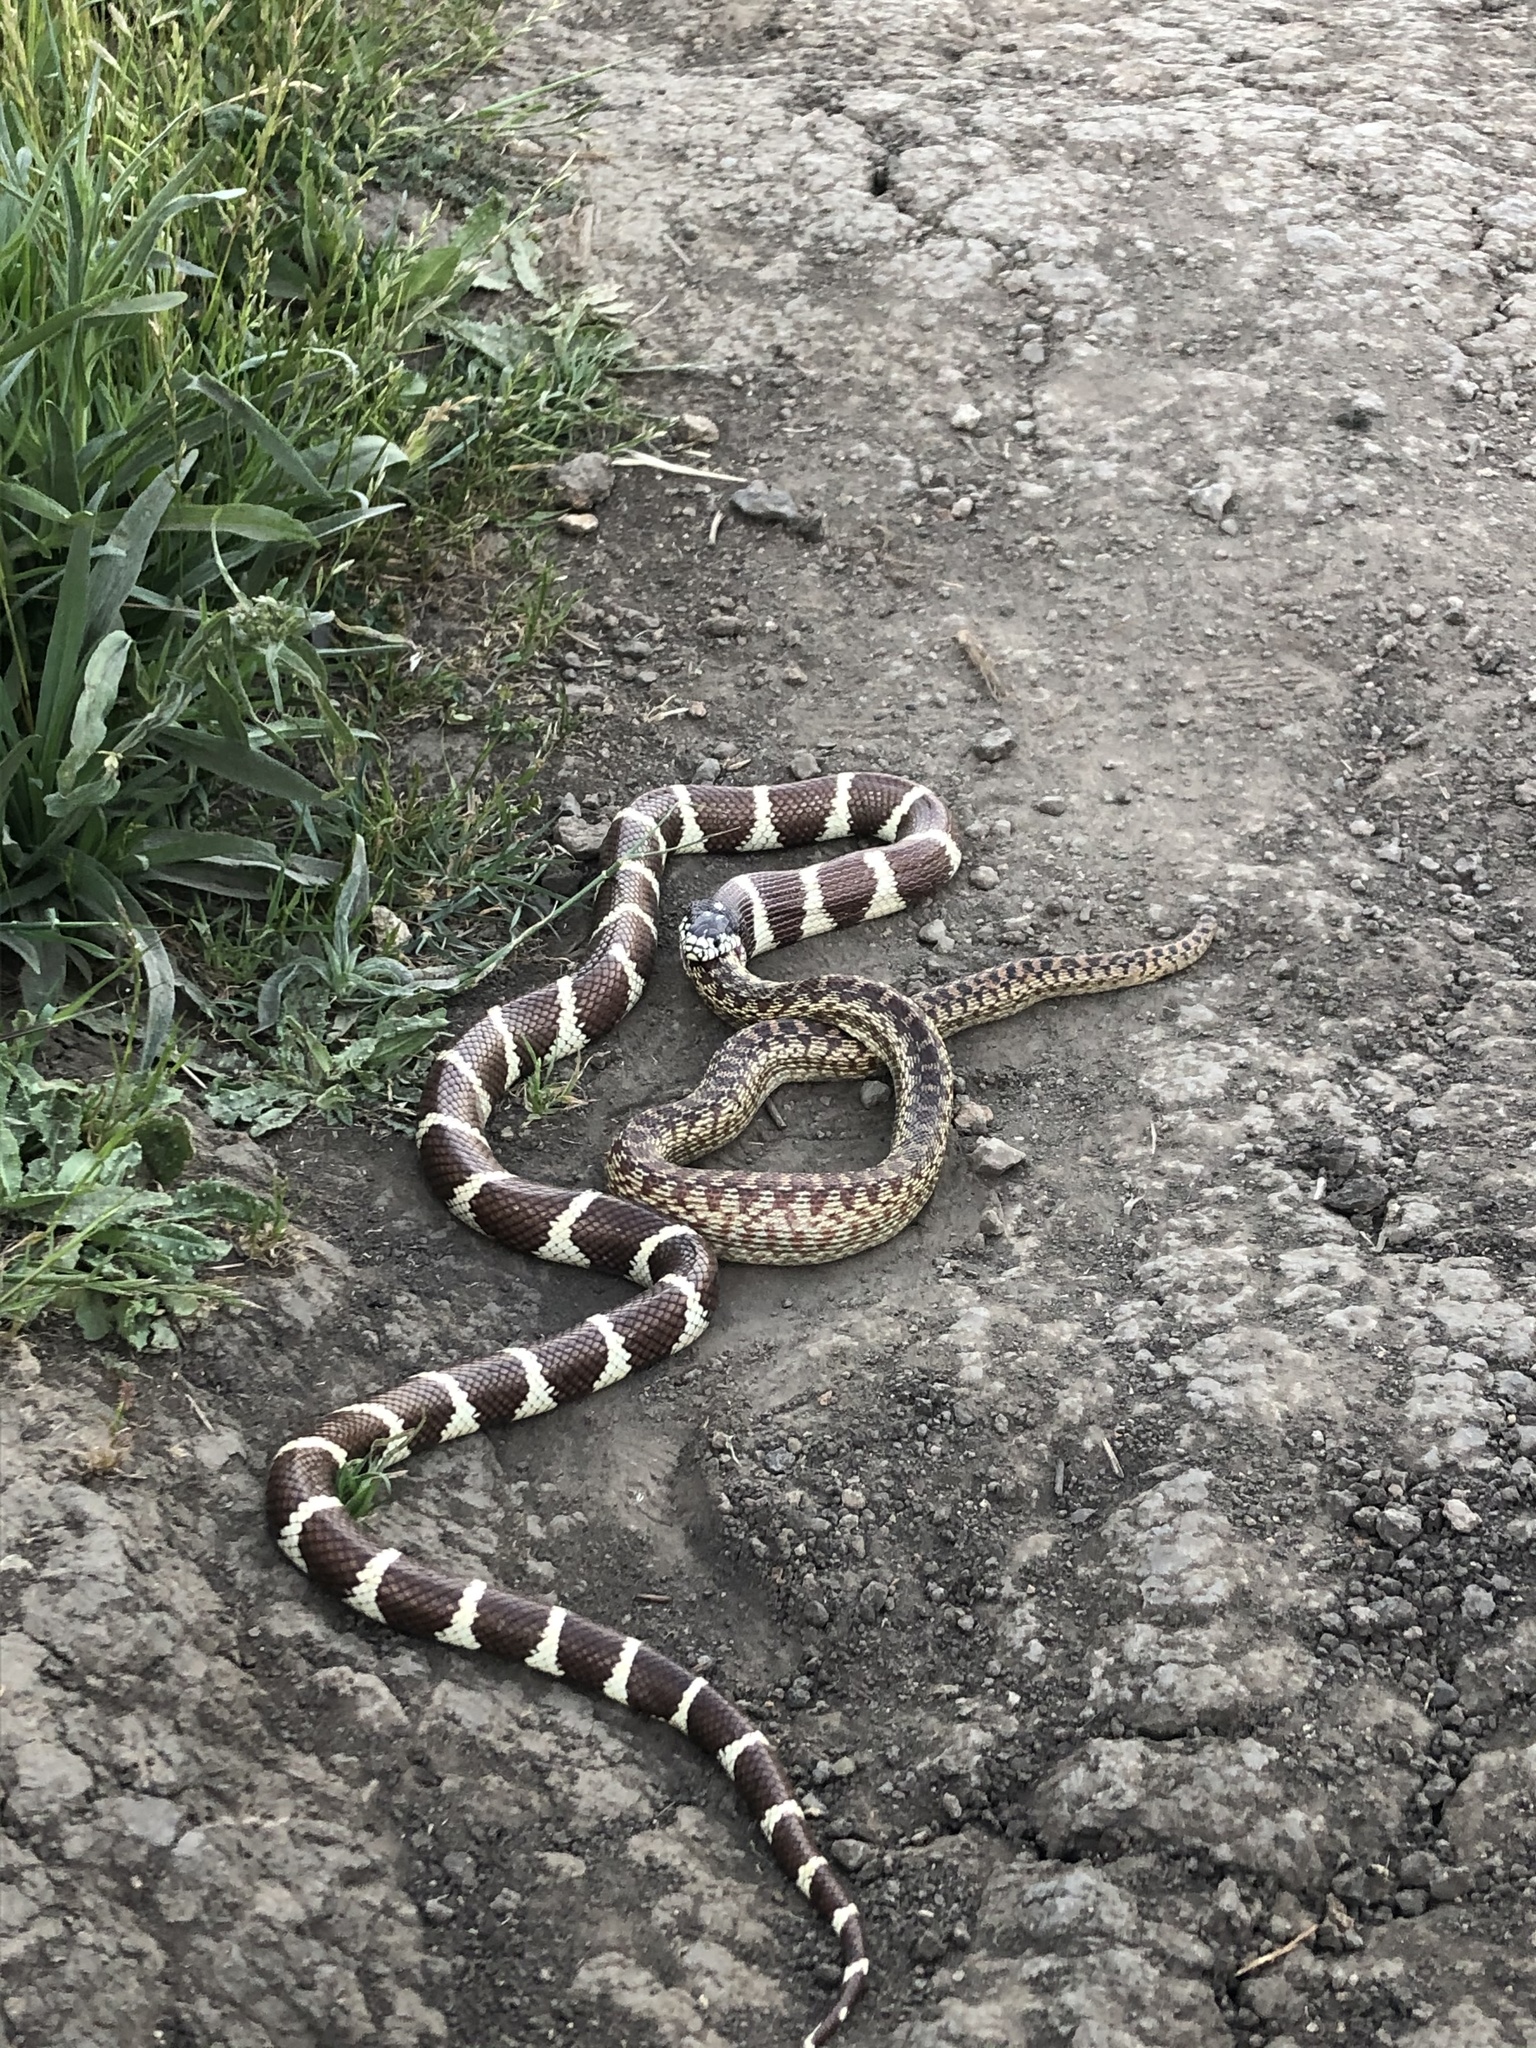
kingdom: Animalia
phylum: Chordata
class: Squamata
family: Colubridae
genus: Lampropeltis
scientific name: Lampropeltis californiae
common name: California kingsnake
